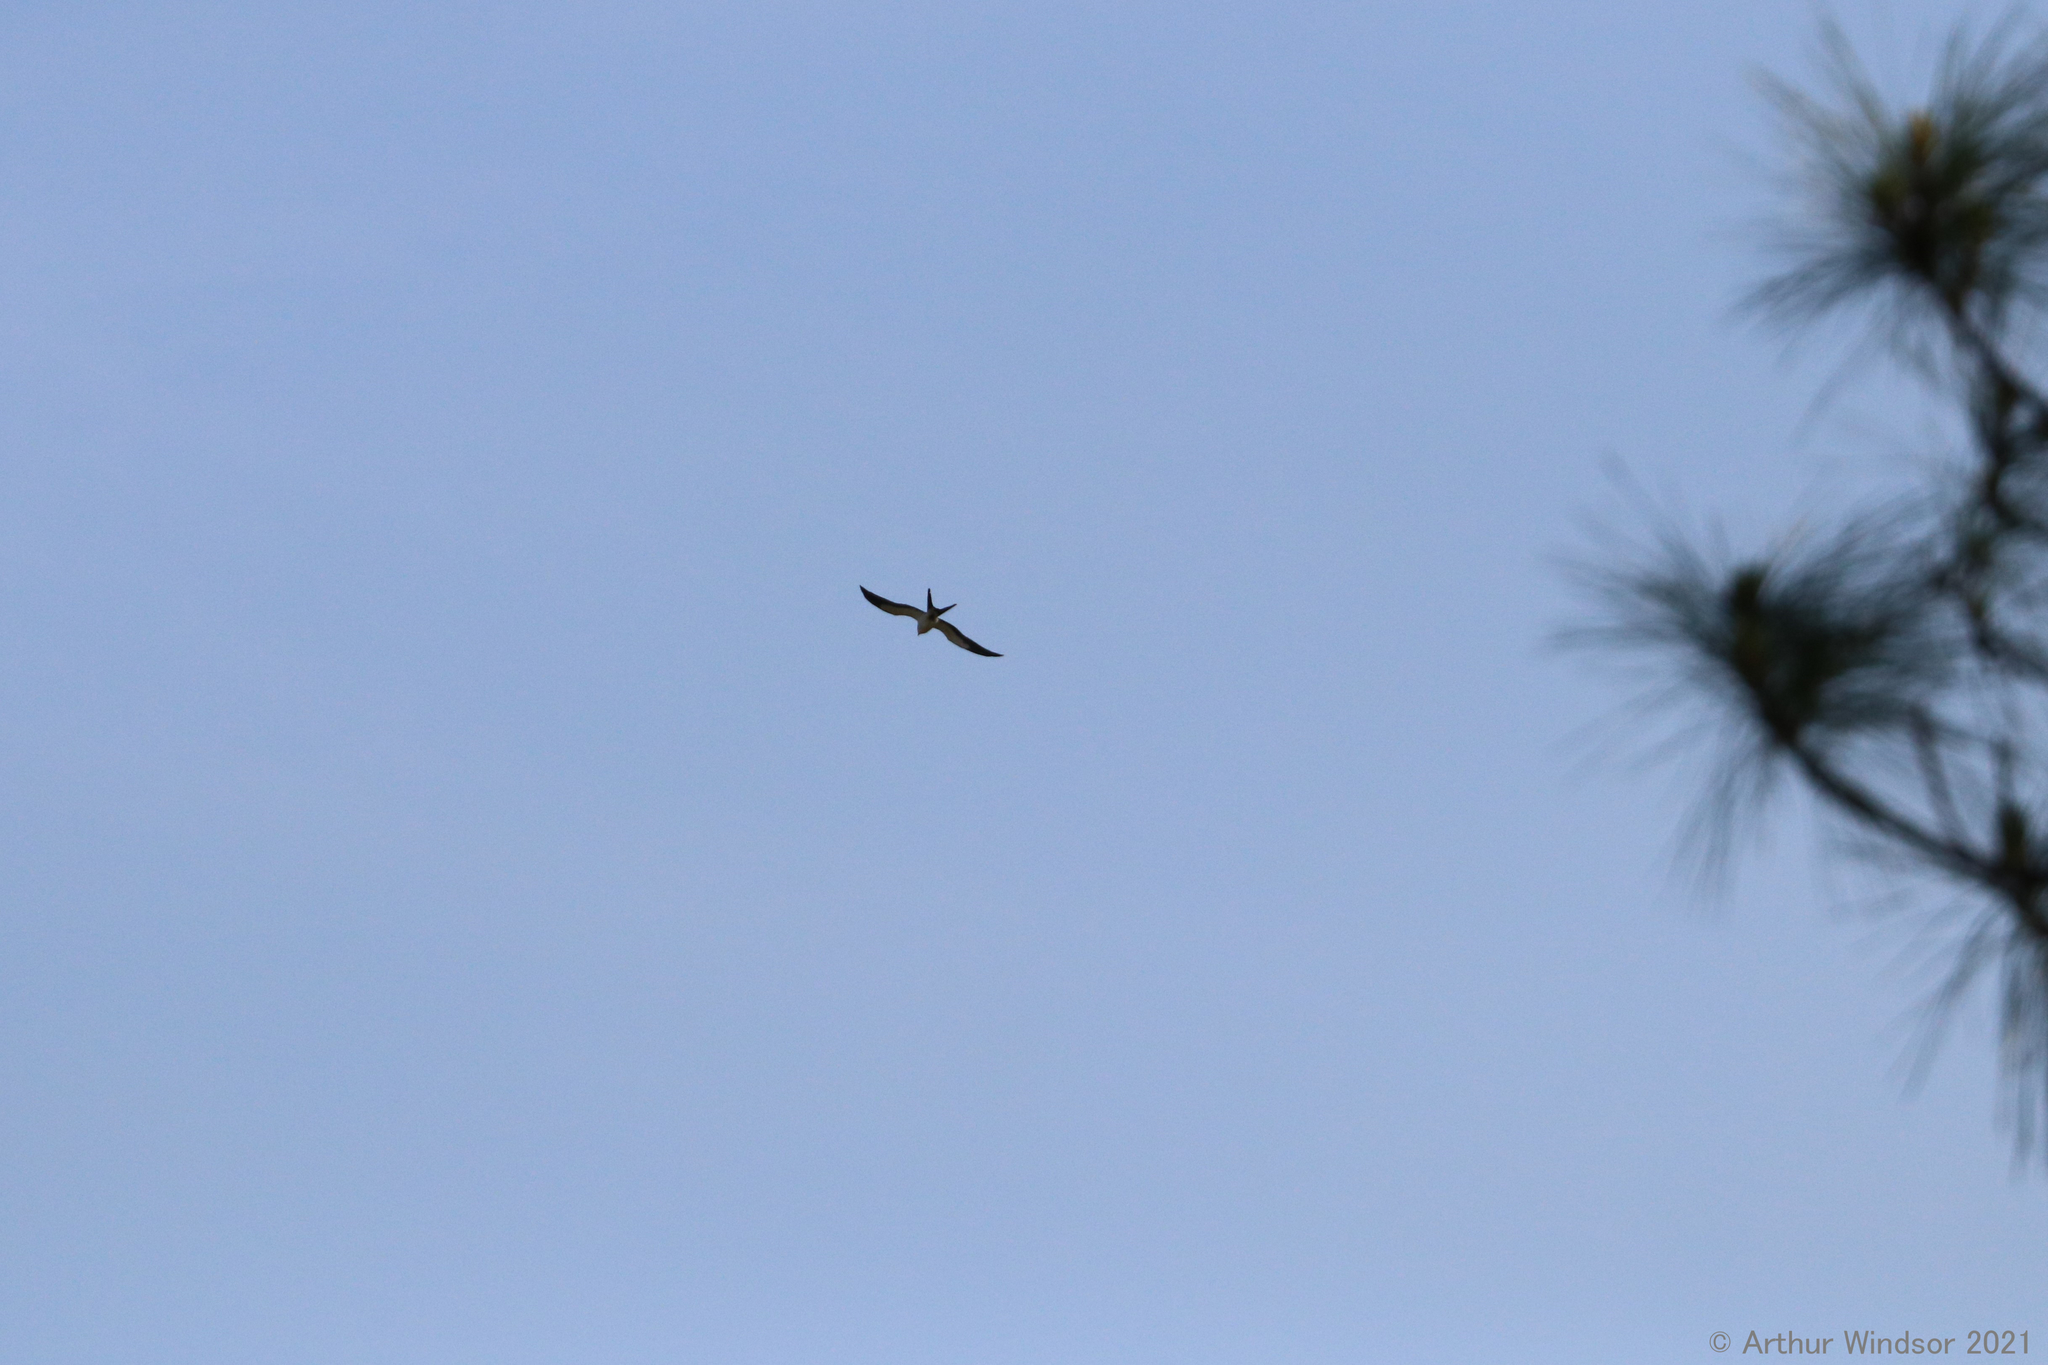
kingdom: Animalia
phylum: Chordata
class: Aves
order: Accipitriformes
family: Accipitridae
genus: Elanoides
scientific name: Elanoides forficatus
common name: Swallow-tailed kite
